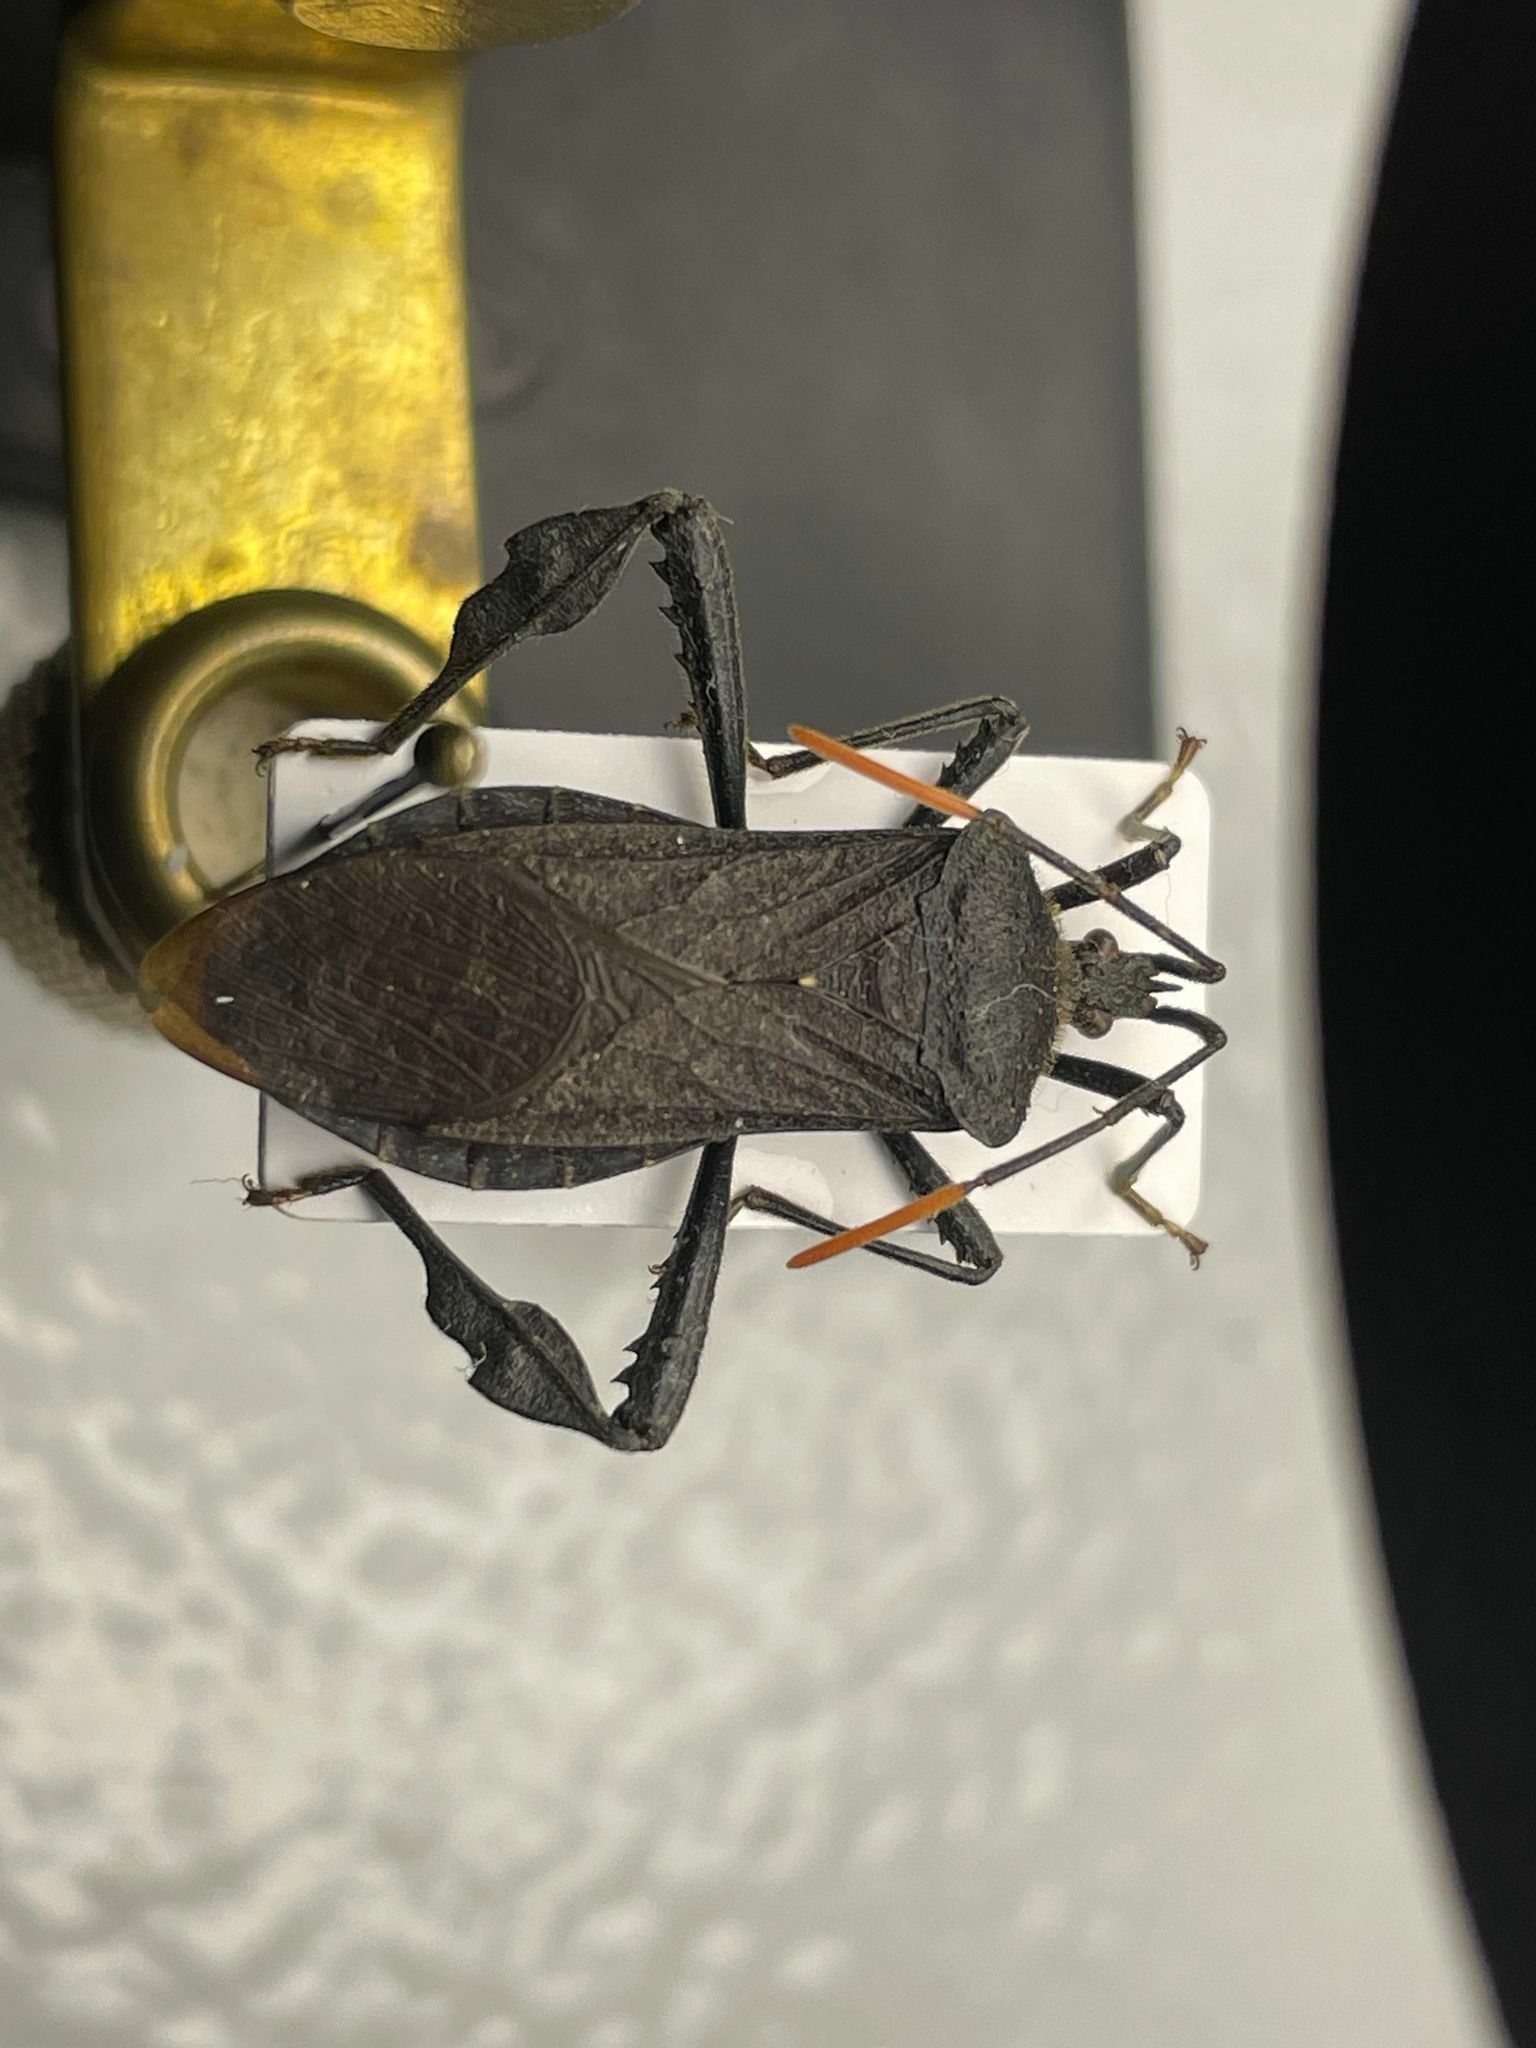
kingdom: Animalia
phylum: Arthropoda
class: Insecta
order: Hemiptera
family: Coreidae
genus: Acanthocephala
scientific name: Acanthocephala terminalis
